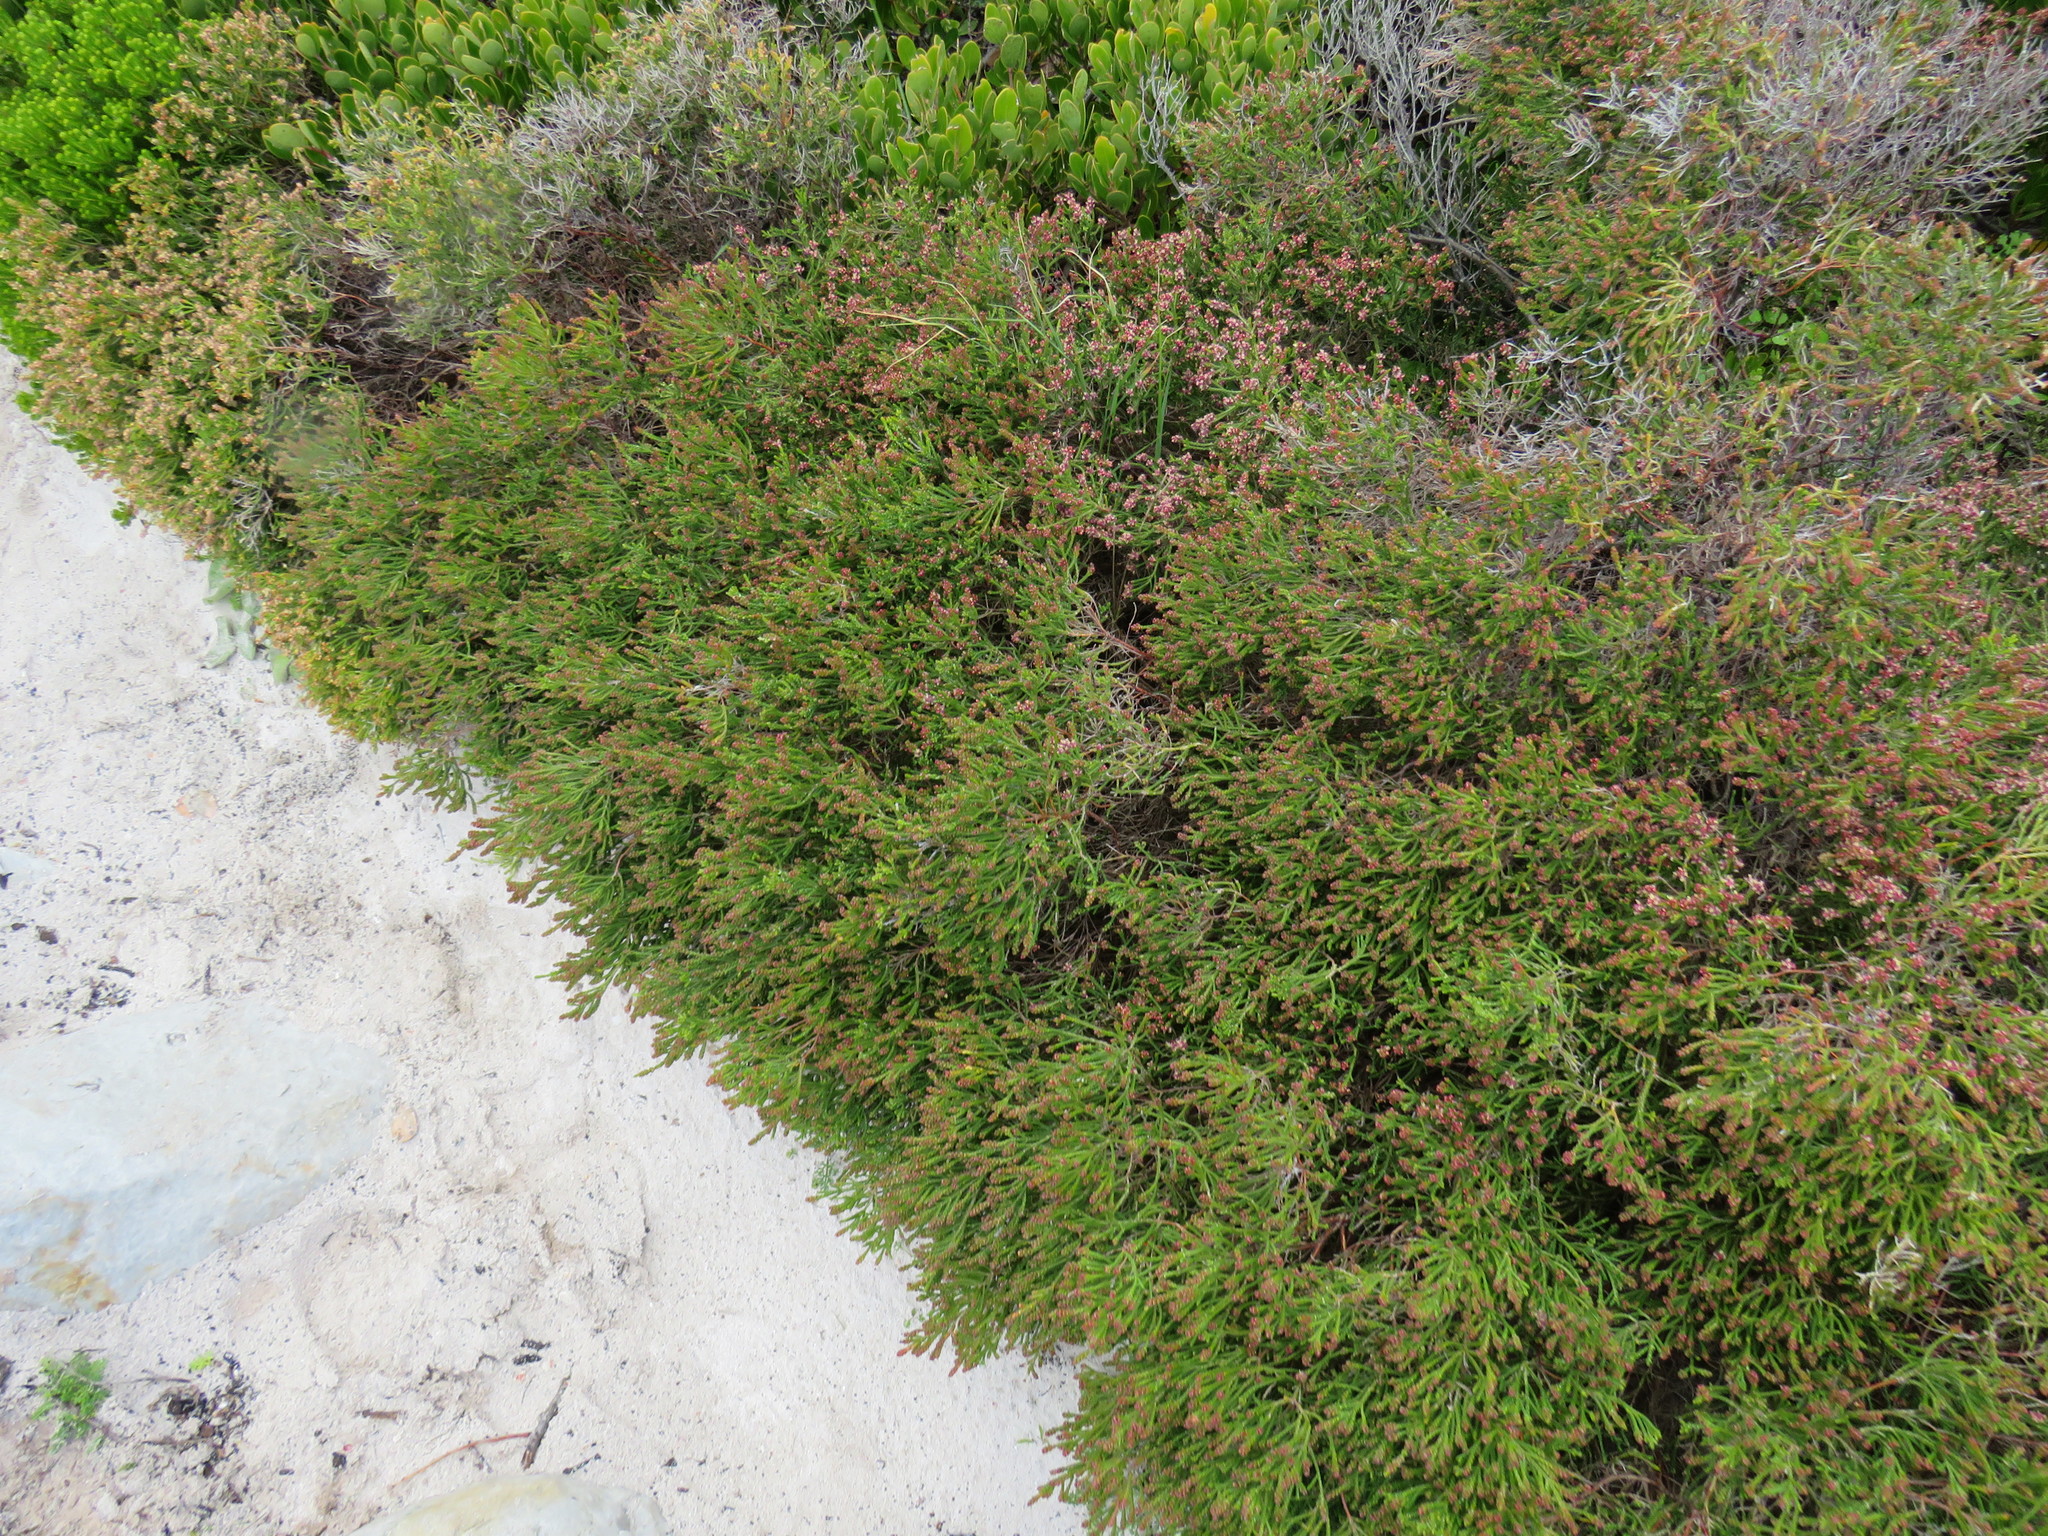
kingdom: Plantae
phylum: Tracheophyta
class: Magnoliopsida
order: Malvales
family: Thymelaeaceae
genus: Passerina
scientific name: Passerina paleacea
